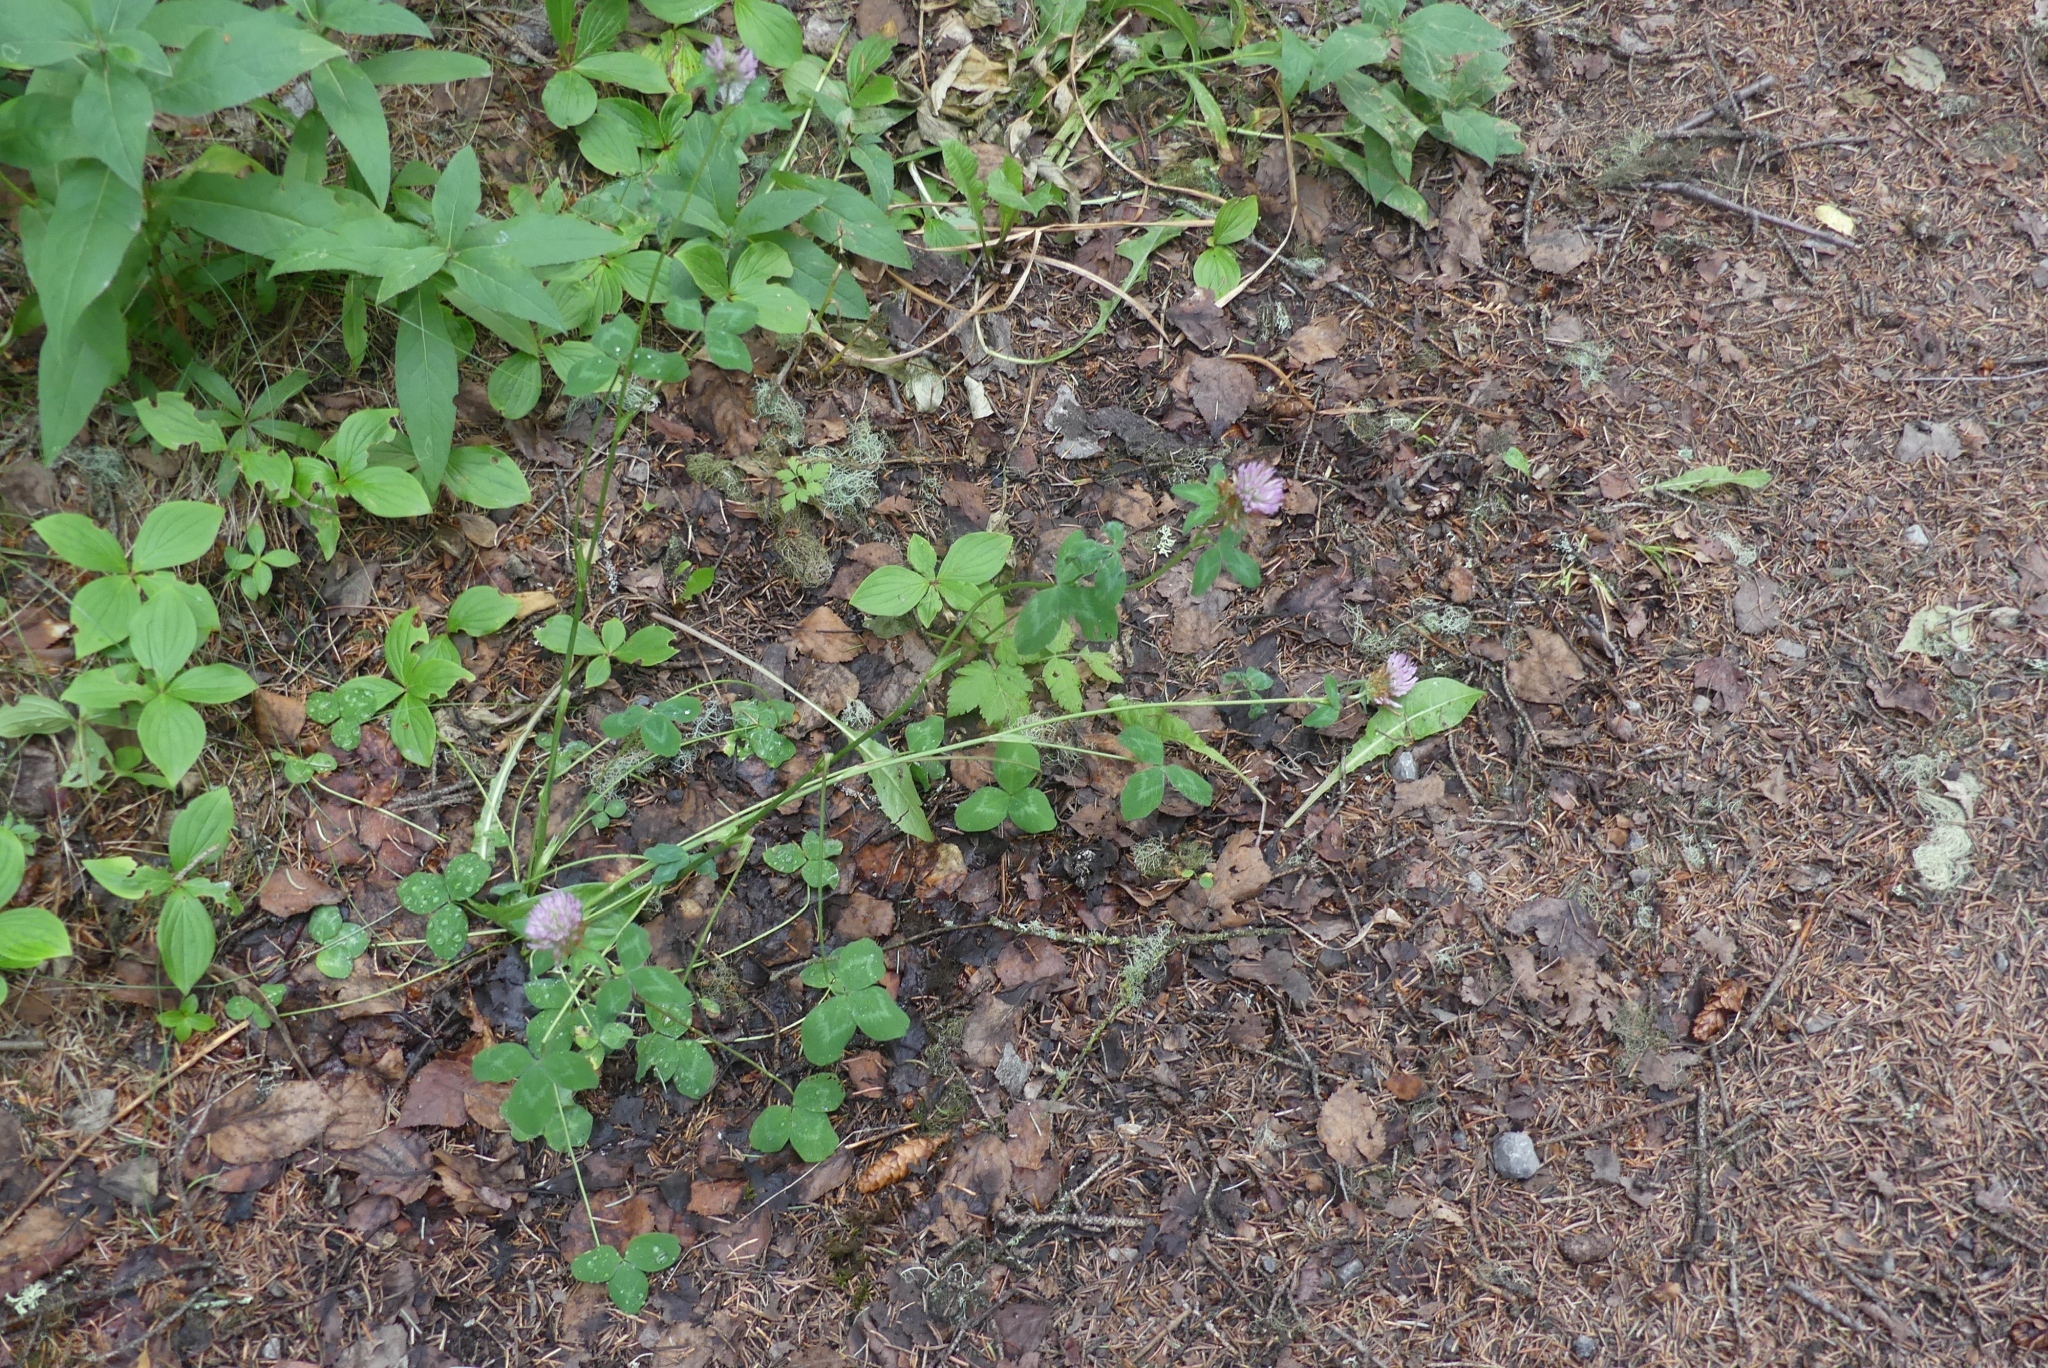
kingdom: Plantae
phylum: Tracheophyta
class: Magnoliopsida
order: Fabales
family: Fabaceae
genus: Trifolium
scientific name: Trifolium pratense
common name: Red clover
